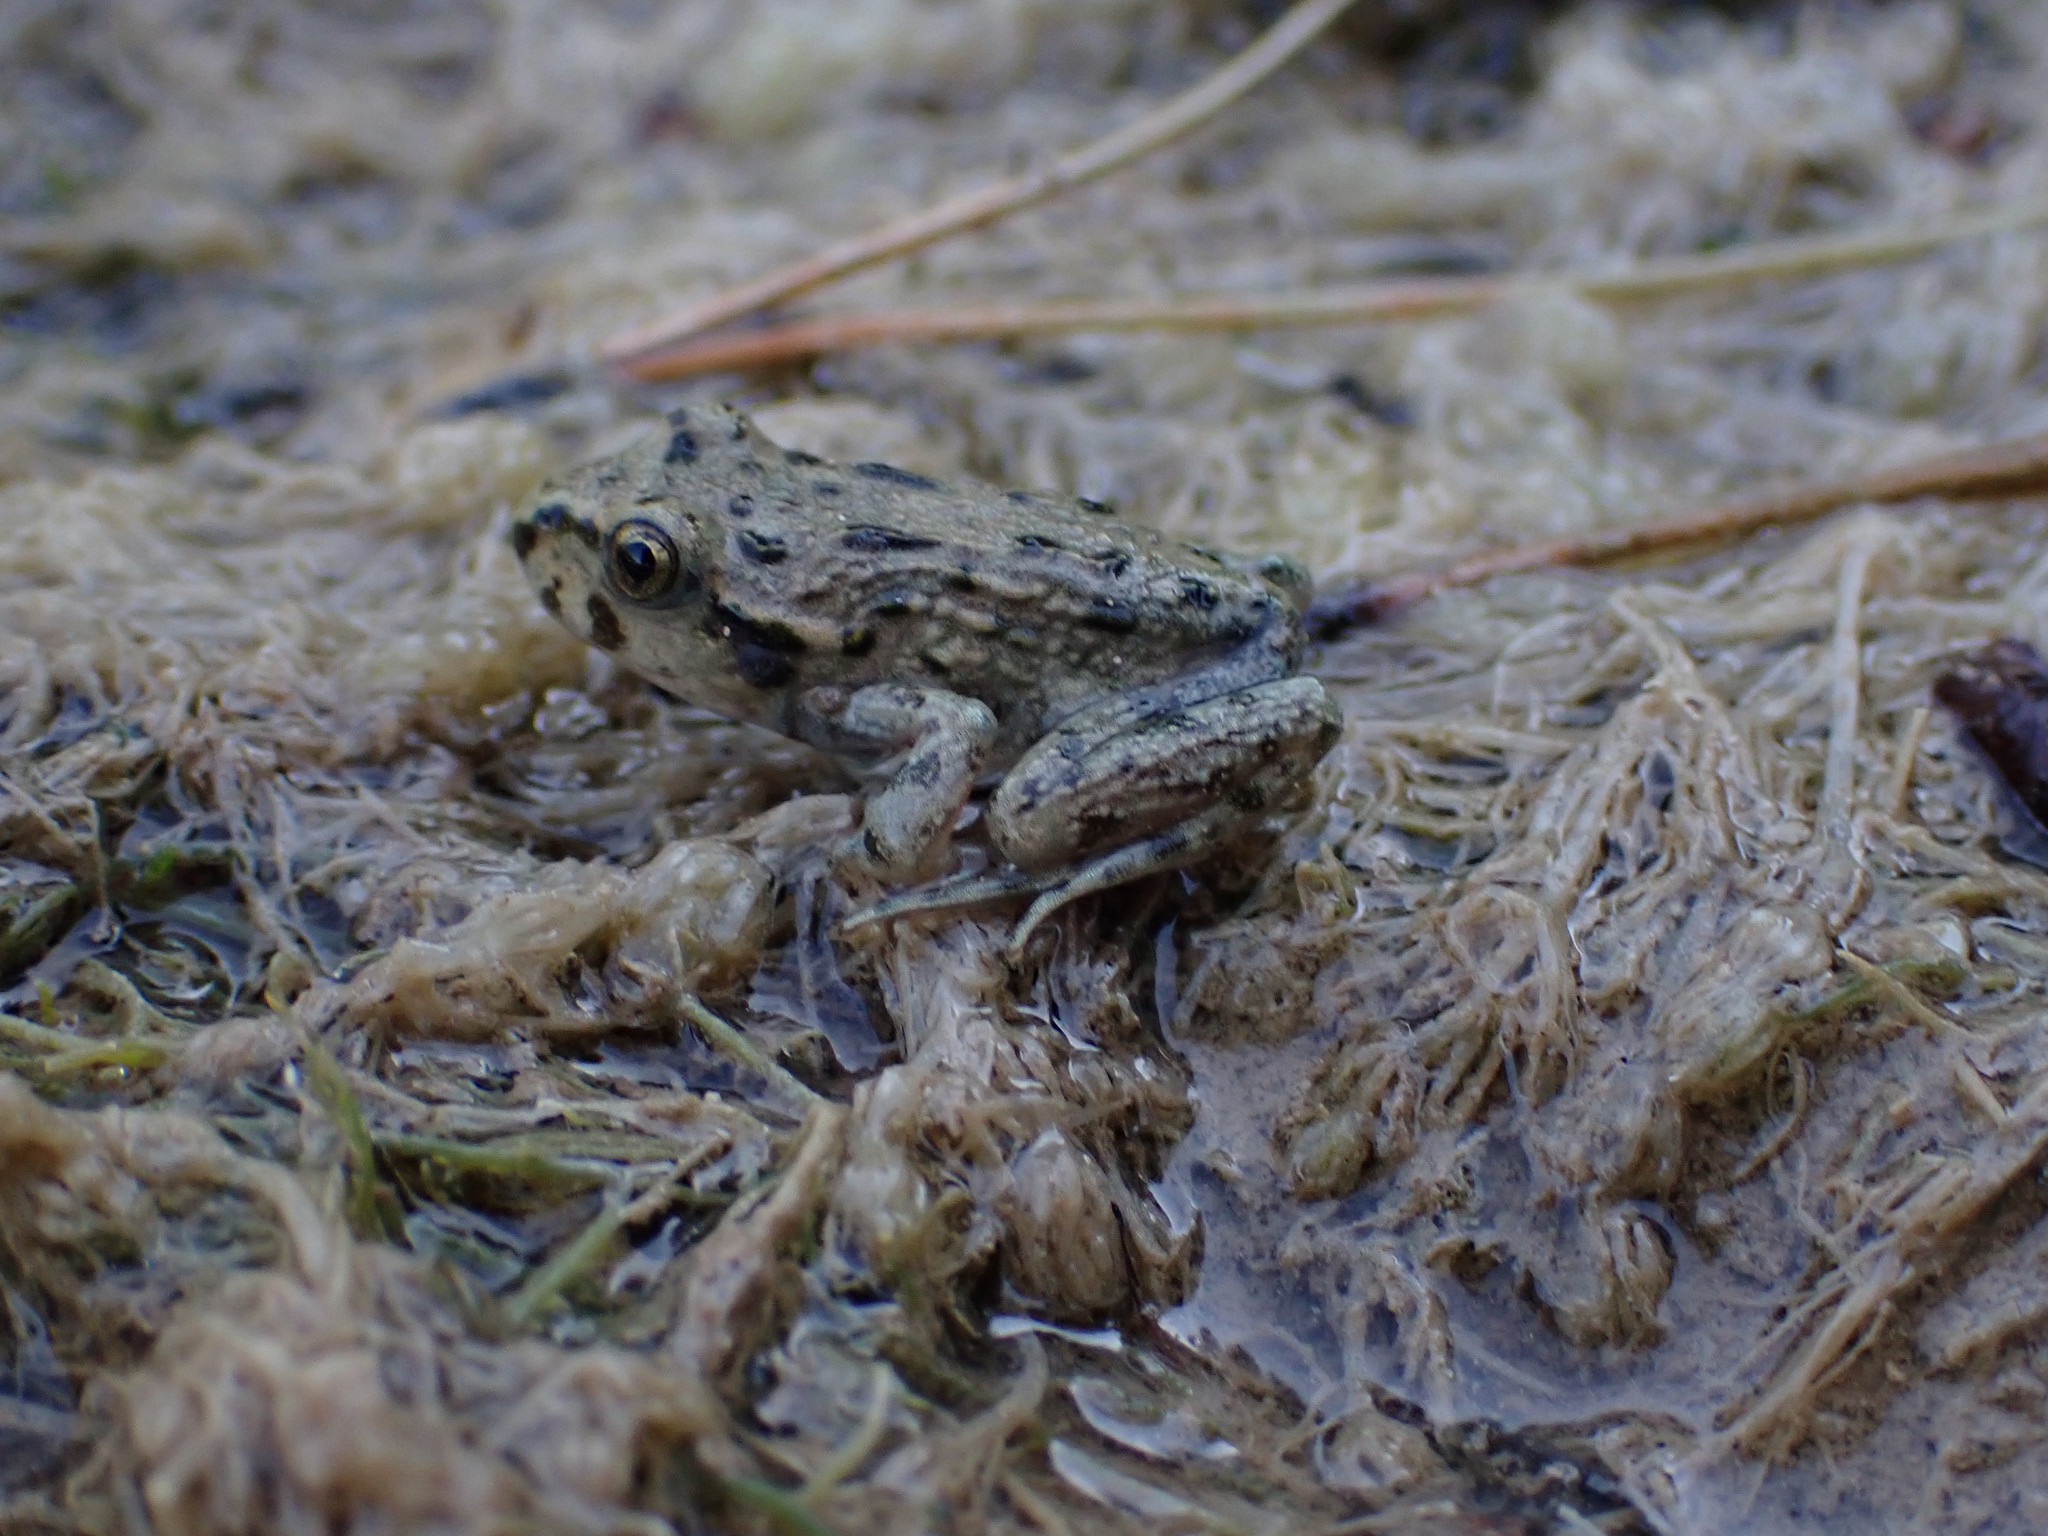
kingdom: Animalia
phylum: Chordata
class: Amphibia
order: Anura
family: Pelodytidae
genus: Pelodytes
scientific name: Pelodytes punctatus
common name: Parsley frog
